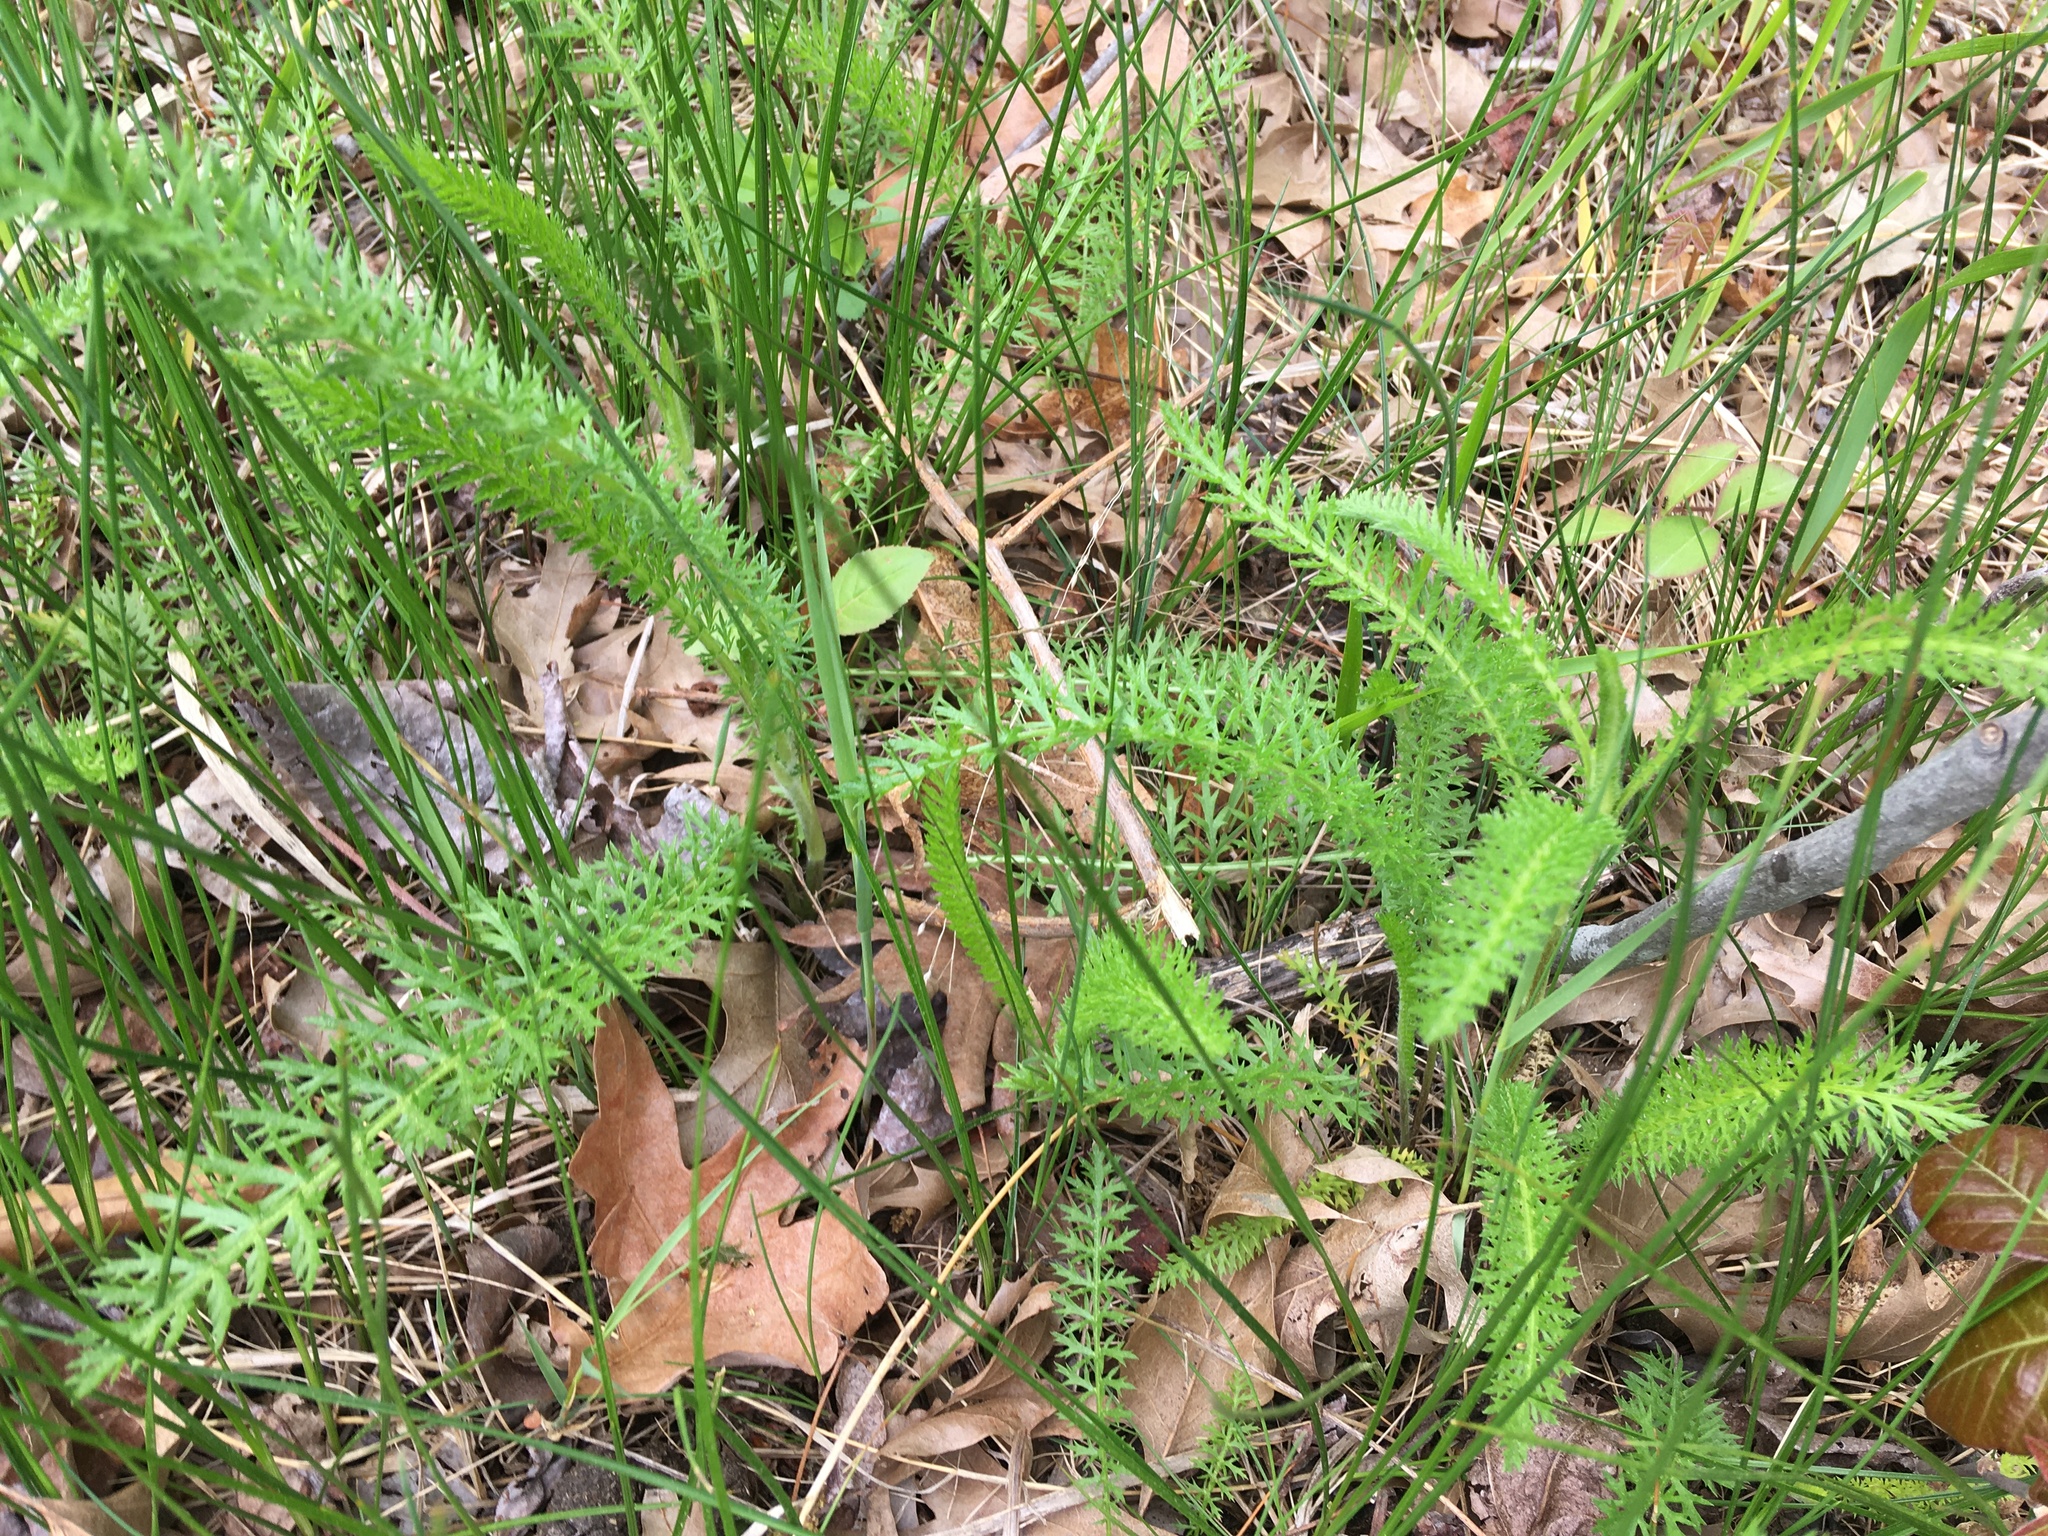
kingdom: Plantae
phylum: Tracheophyta
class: Magnoliopsida
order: Asterales
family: Asteraceae
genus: Achillea
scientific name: Achillea millefolium
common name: Yarrow
